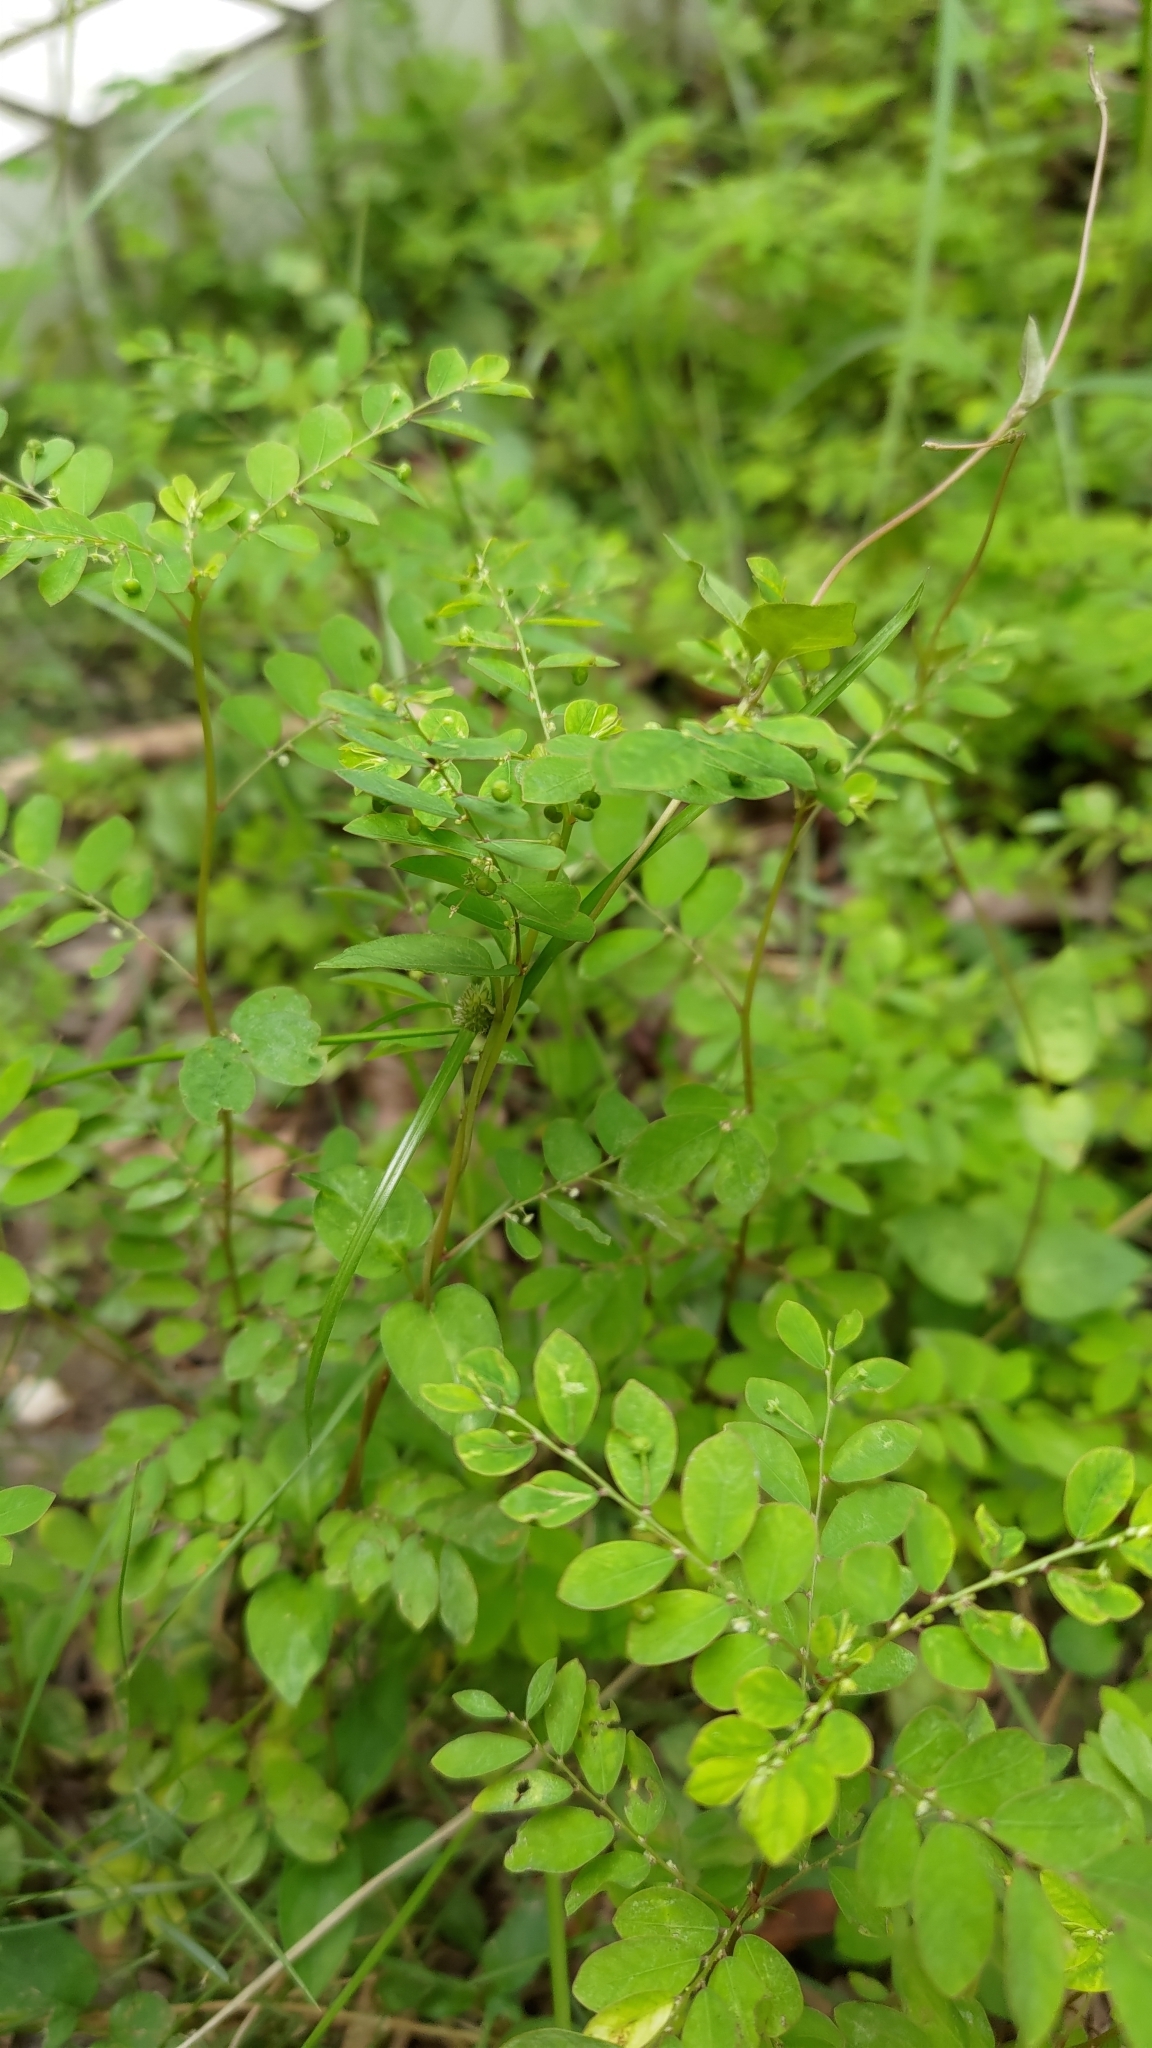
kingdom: Plantae
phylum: Tracheophyta
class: Magnoliopsida
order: Malpighiales
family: Phyllanthaceae
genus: Phyllanthus
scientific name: Phyllanthus tenellus
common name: Mascarene island leaf-flower
